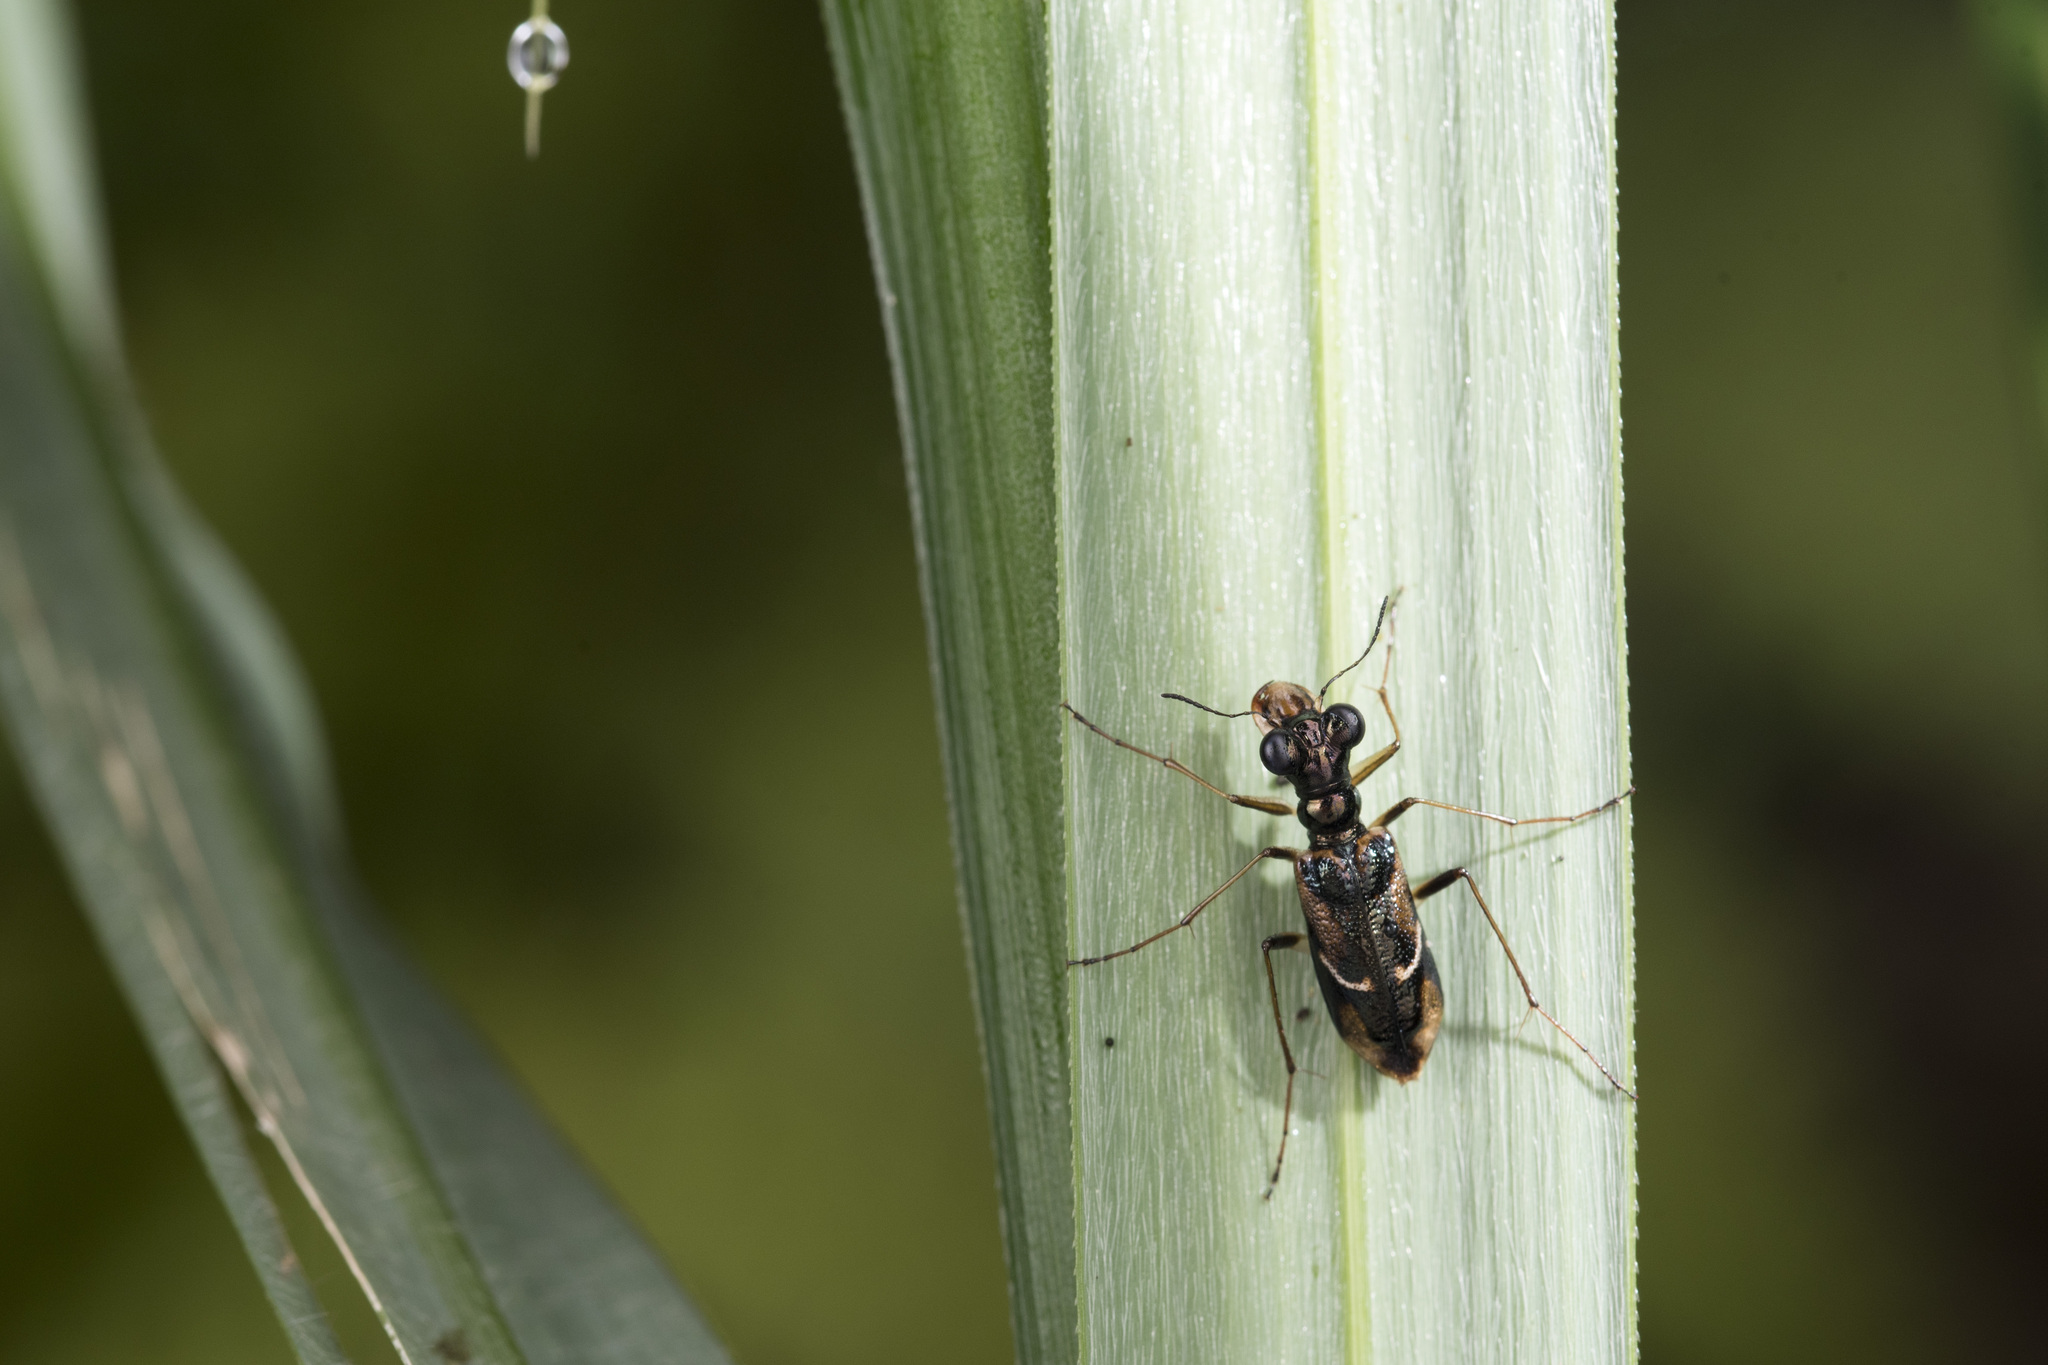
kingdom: Animalia
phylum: Arthropoda
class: Insecta
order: Coleoptera
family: Carabidae
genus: Therates
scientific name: Therates alboobliquatus
